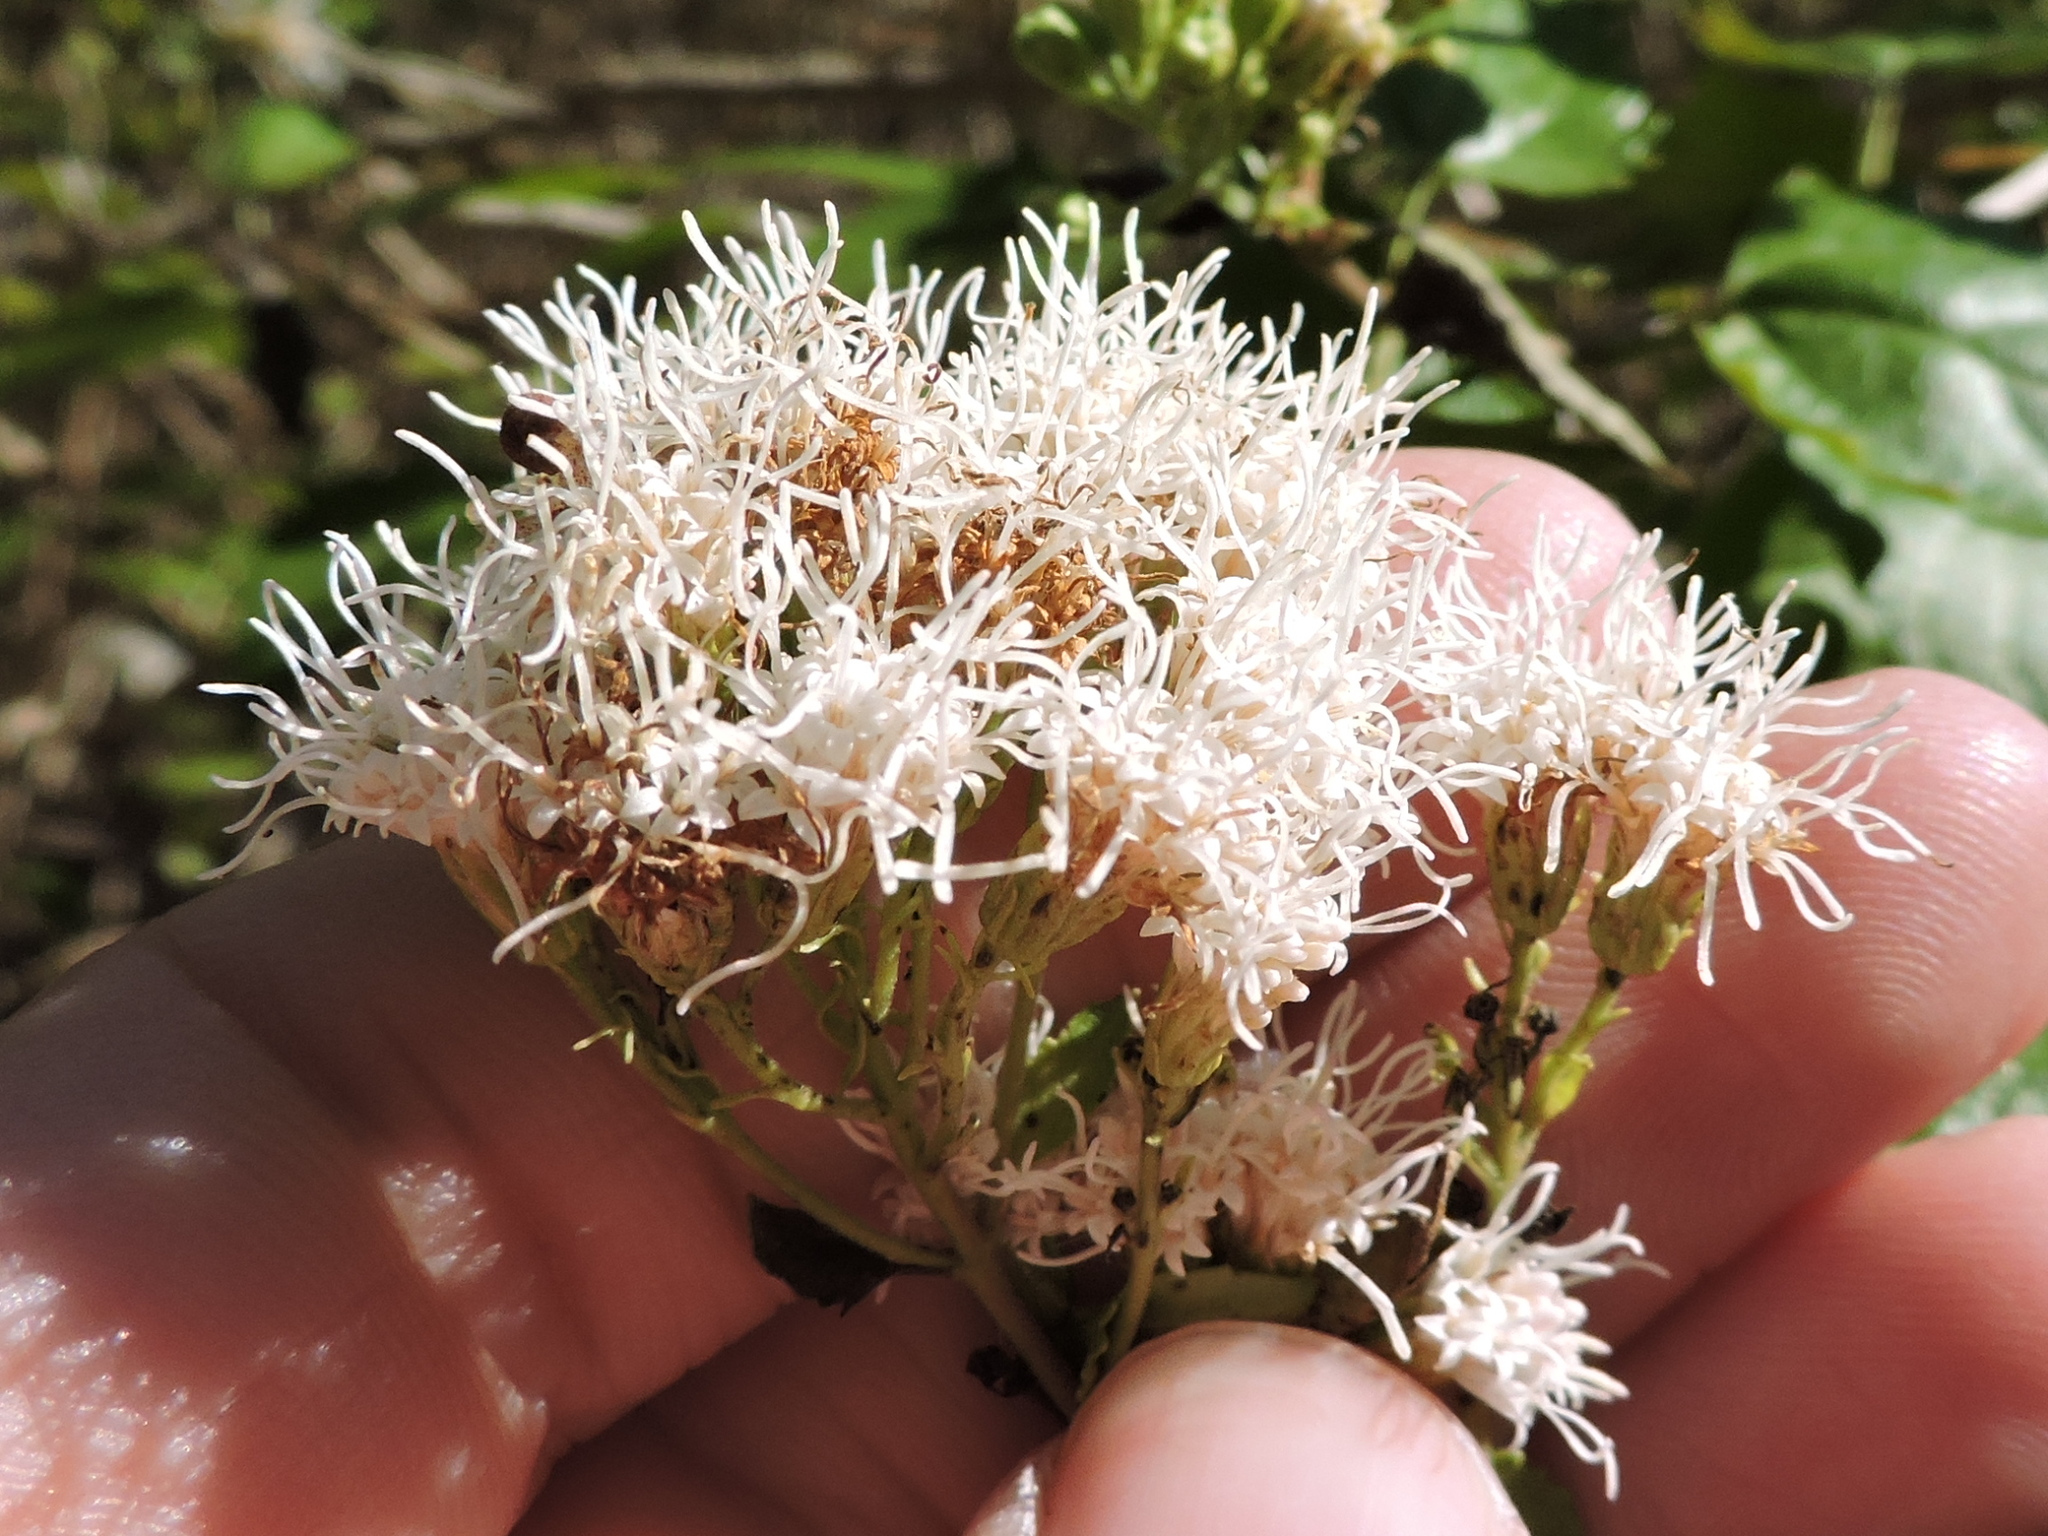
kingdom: Plantae
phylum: Tracheophyta
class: Magnoliopsida
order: Asterales
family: Asteraceae
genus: Ageratina
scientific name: Ageratina havanensis
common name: Havana snakeroot
